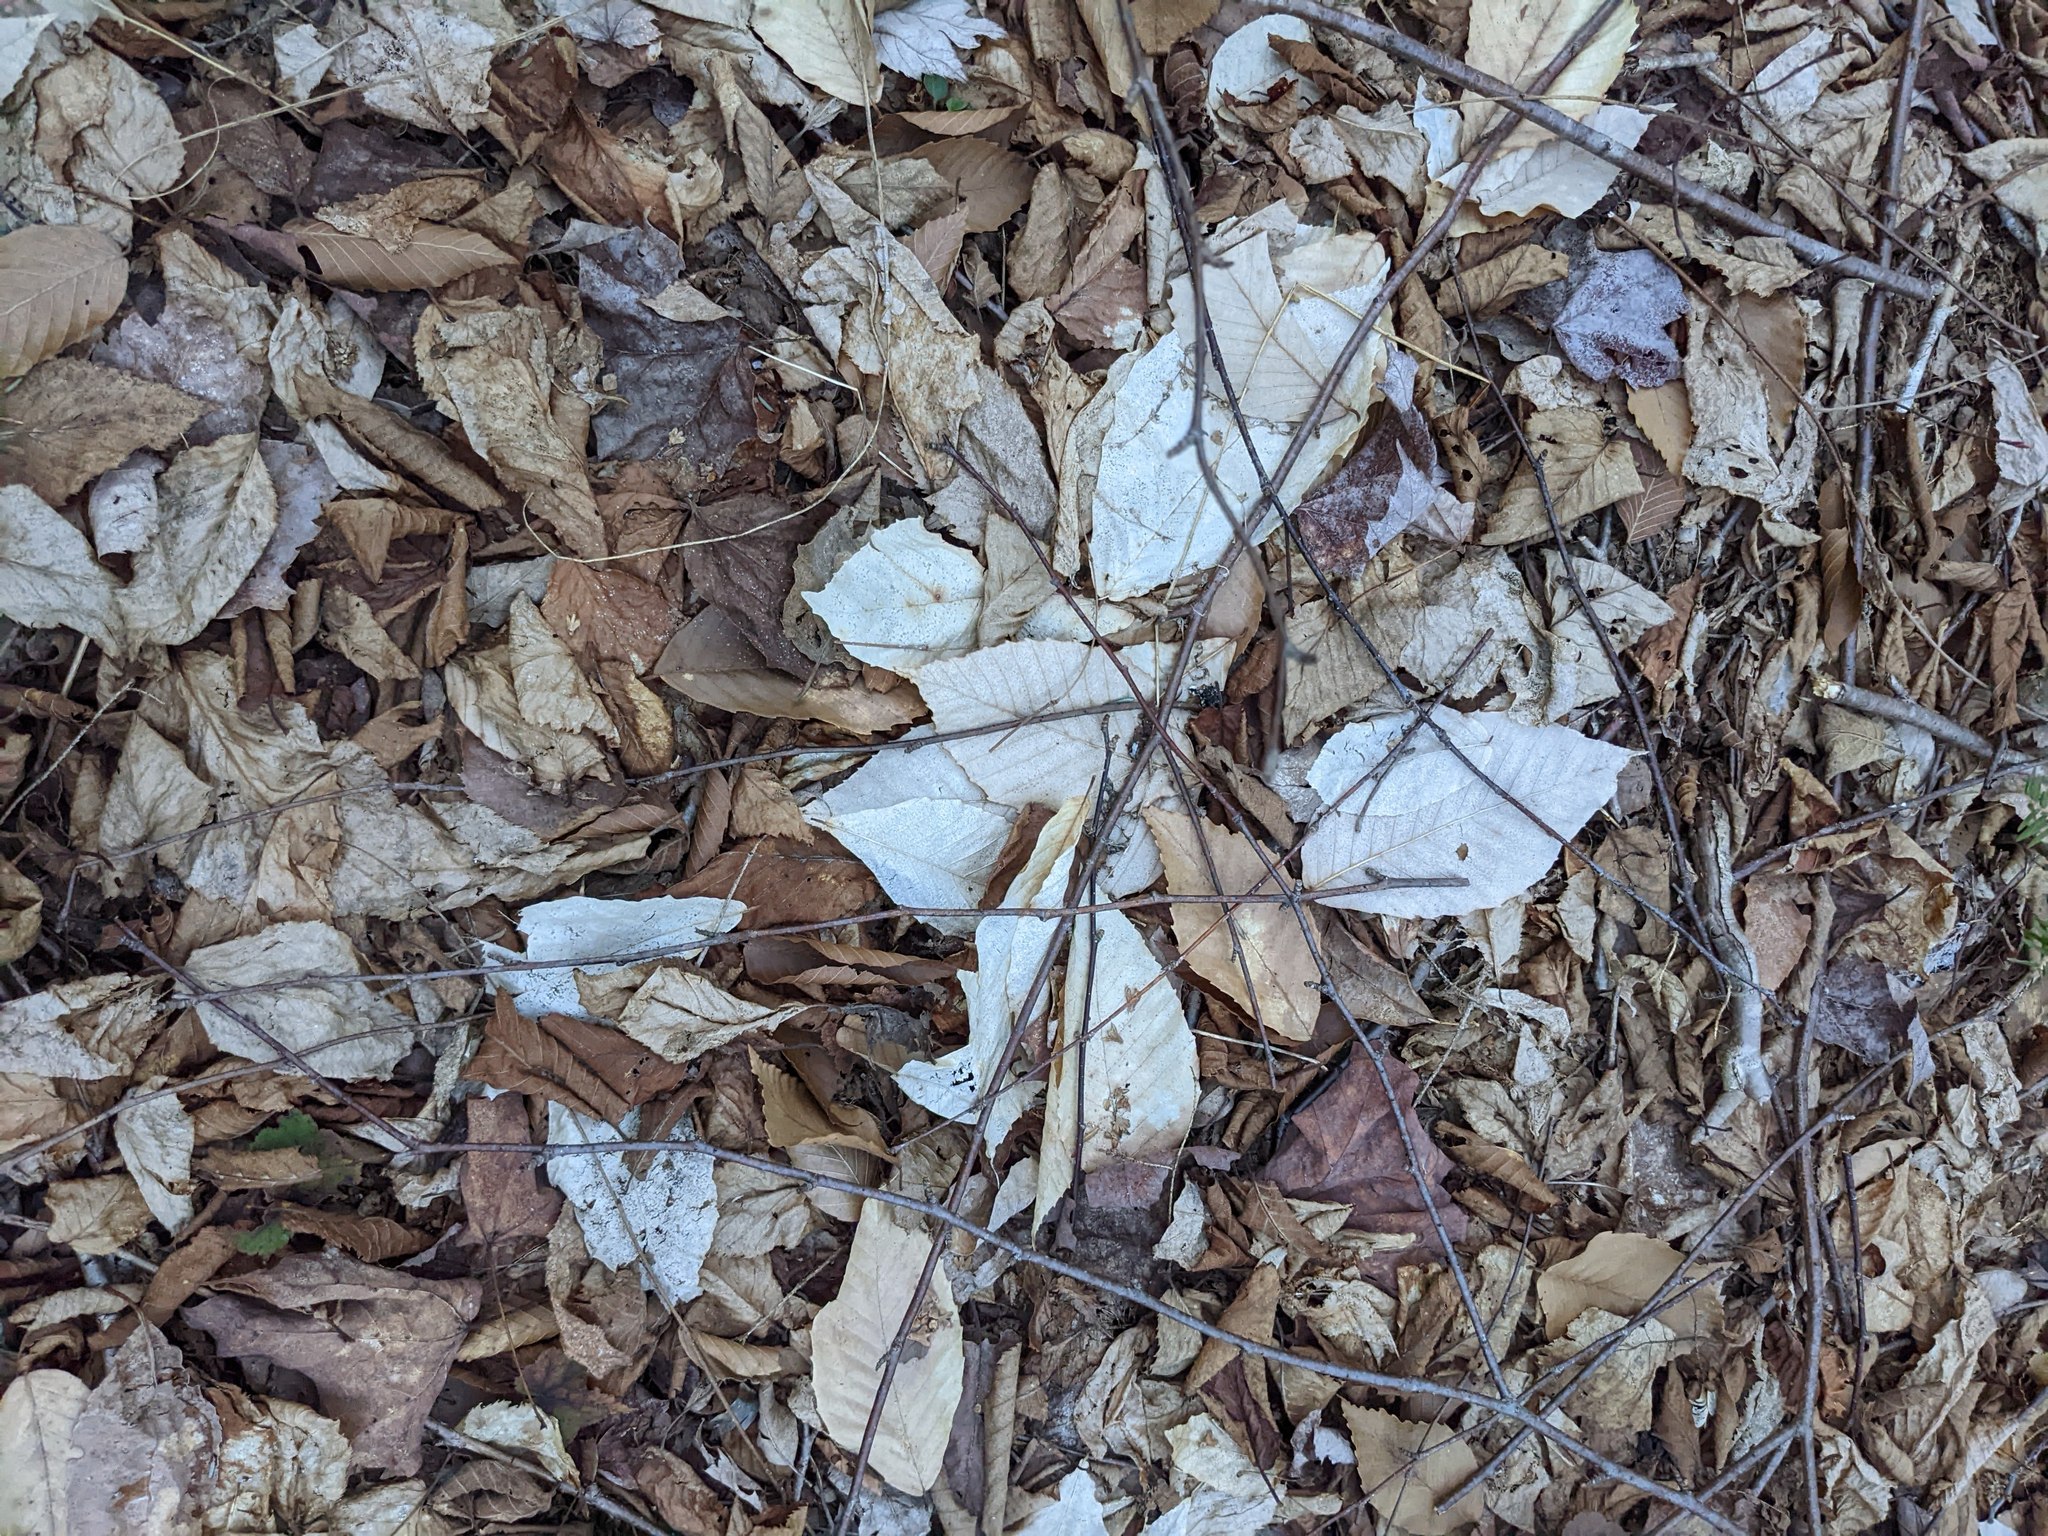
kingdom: Plantae
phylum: Tracheophyta
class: Magnoliopsida
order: Fagales
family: Fagaceae
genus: Fagus
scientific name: Fagus grandifolia
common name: American beech
